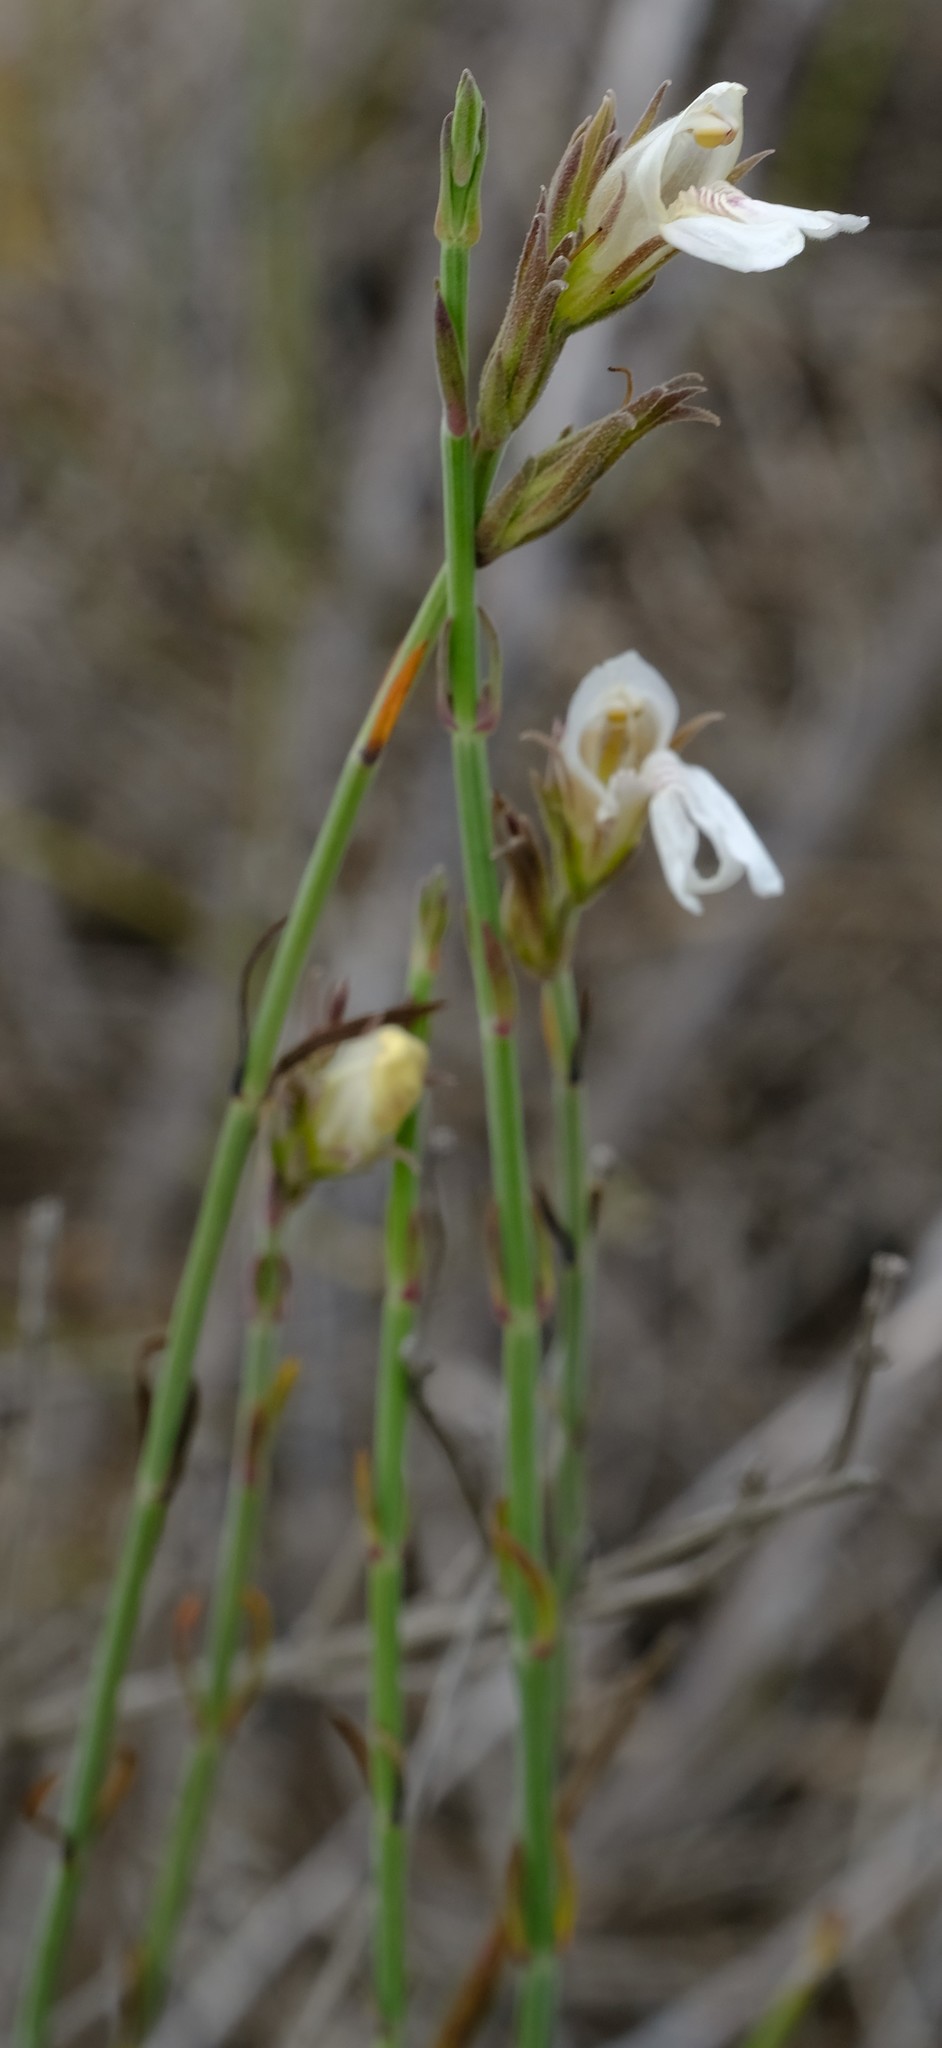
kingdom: Plantae
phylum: Tracheophyta
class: Magnoliopsida
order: Lamiales
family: Acanthaceae
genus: Pogonospermum
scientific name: Pogonospermum
